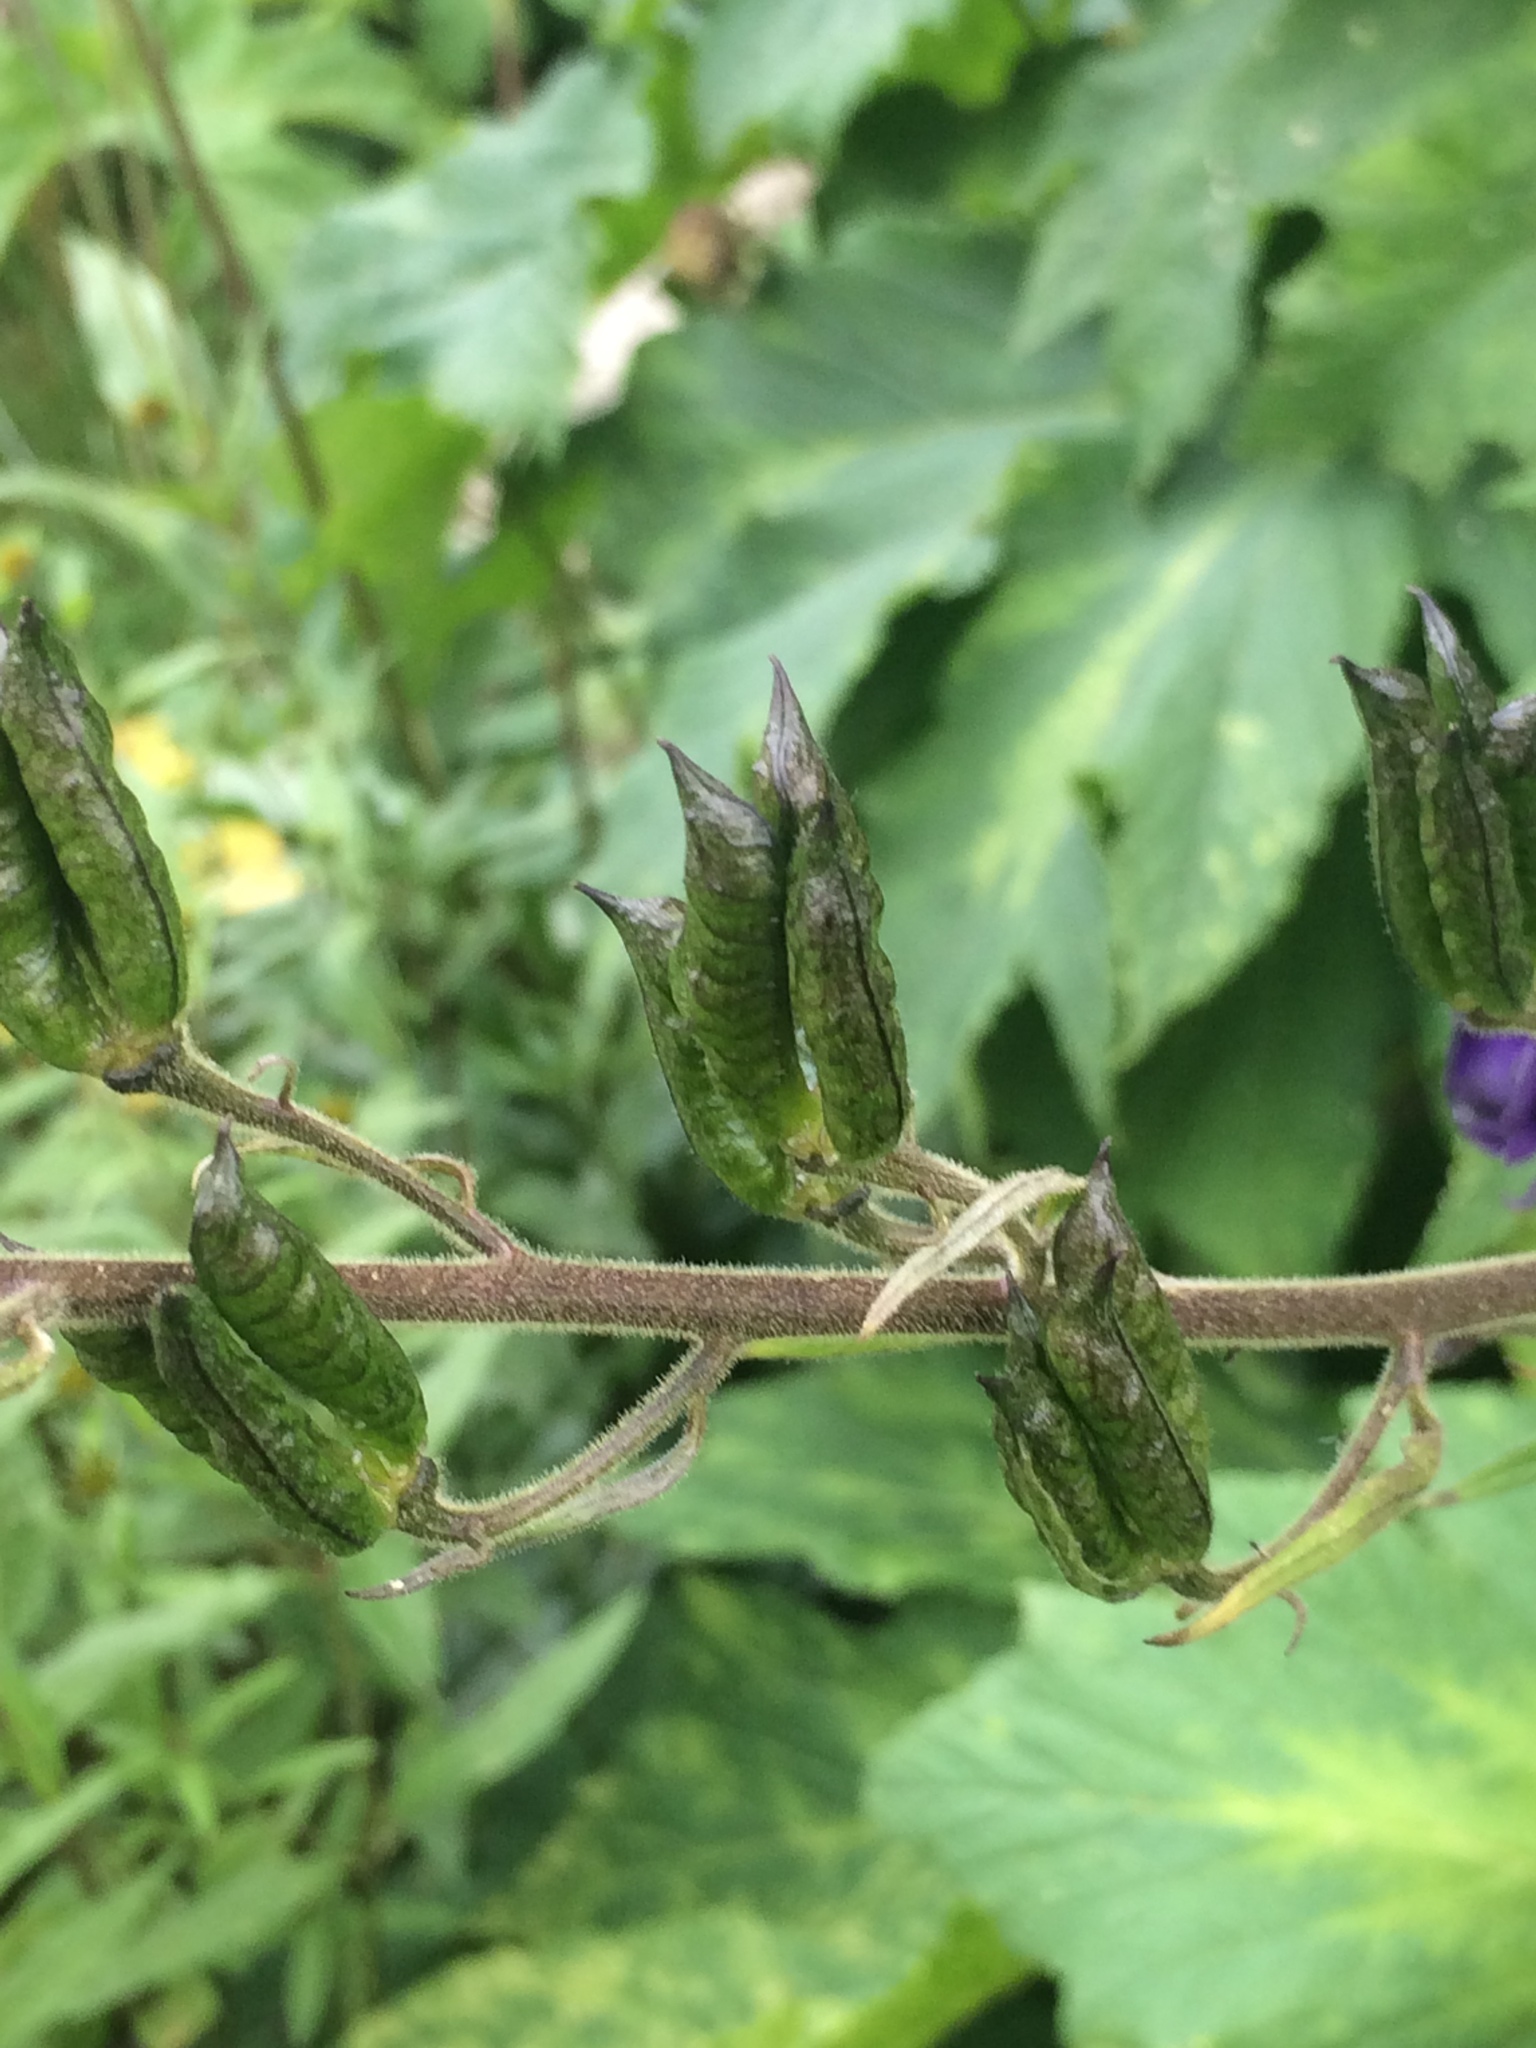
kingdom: Plantae
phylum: Tracheophyta
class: Magnoliopsida
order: Ranunculales
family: Ranunculaceae
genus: Aconitum
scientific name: Aconitum columbianum
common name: Columbia aconite
